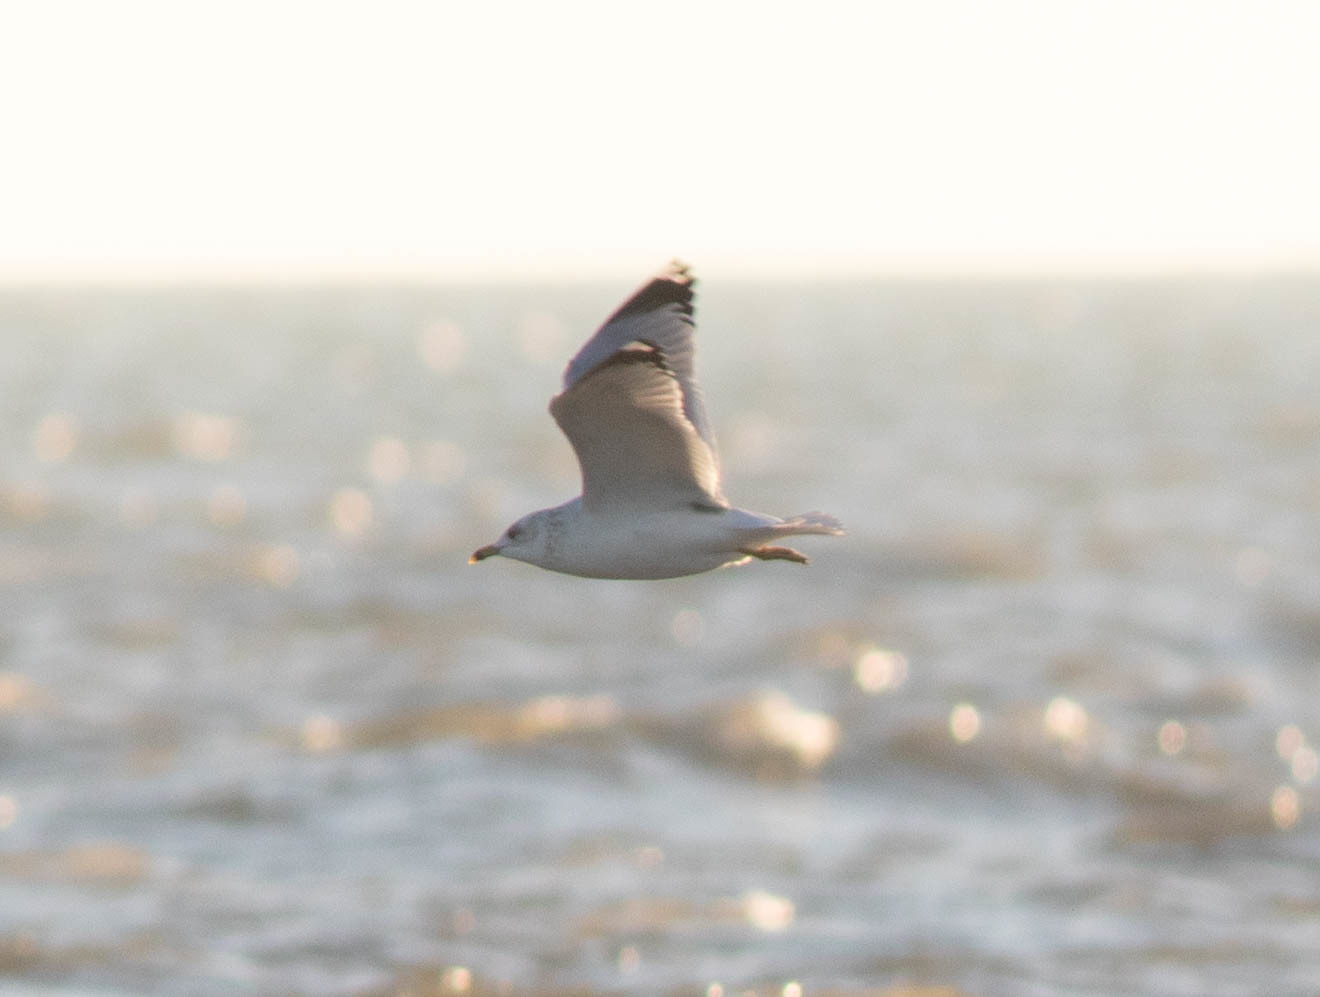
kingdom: Animalia
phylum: Chordata
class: Aves
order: Charadriiformes
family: Laridae
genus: Larus
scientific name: Larus delawarensis
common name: Ring-billed gull
